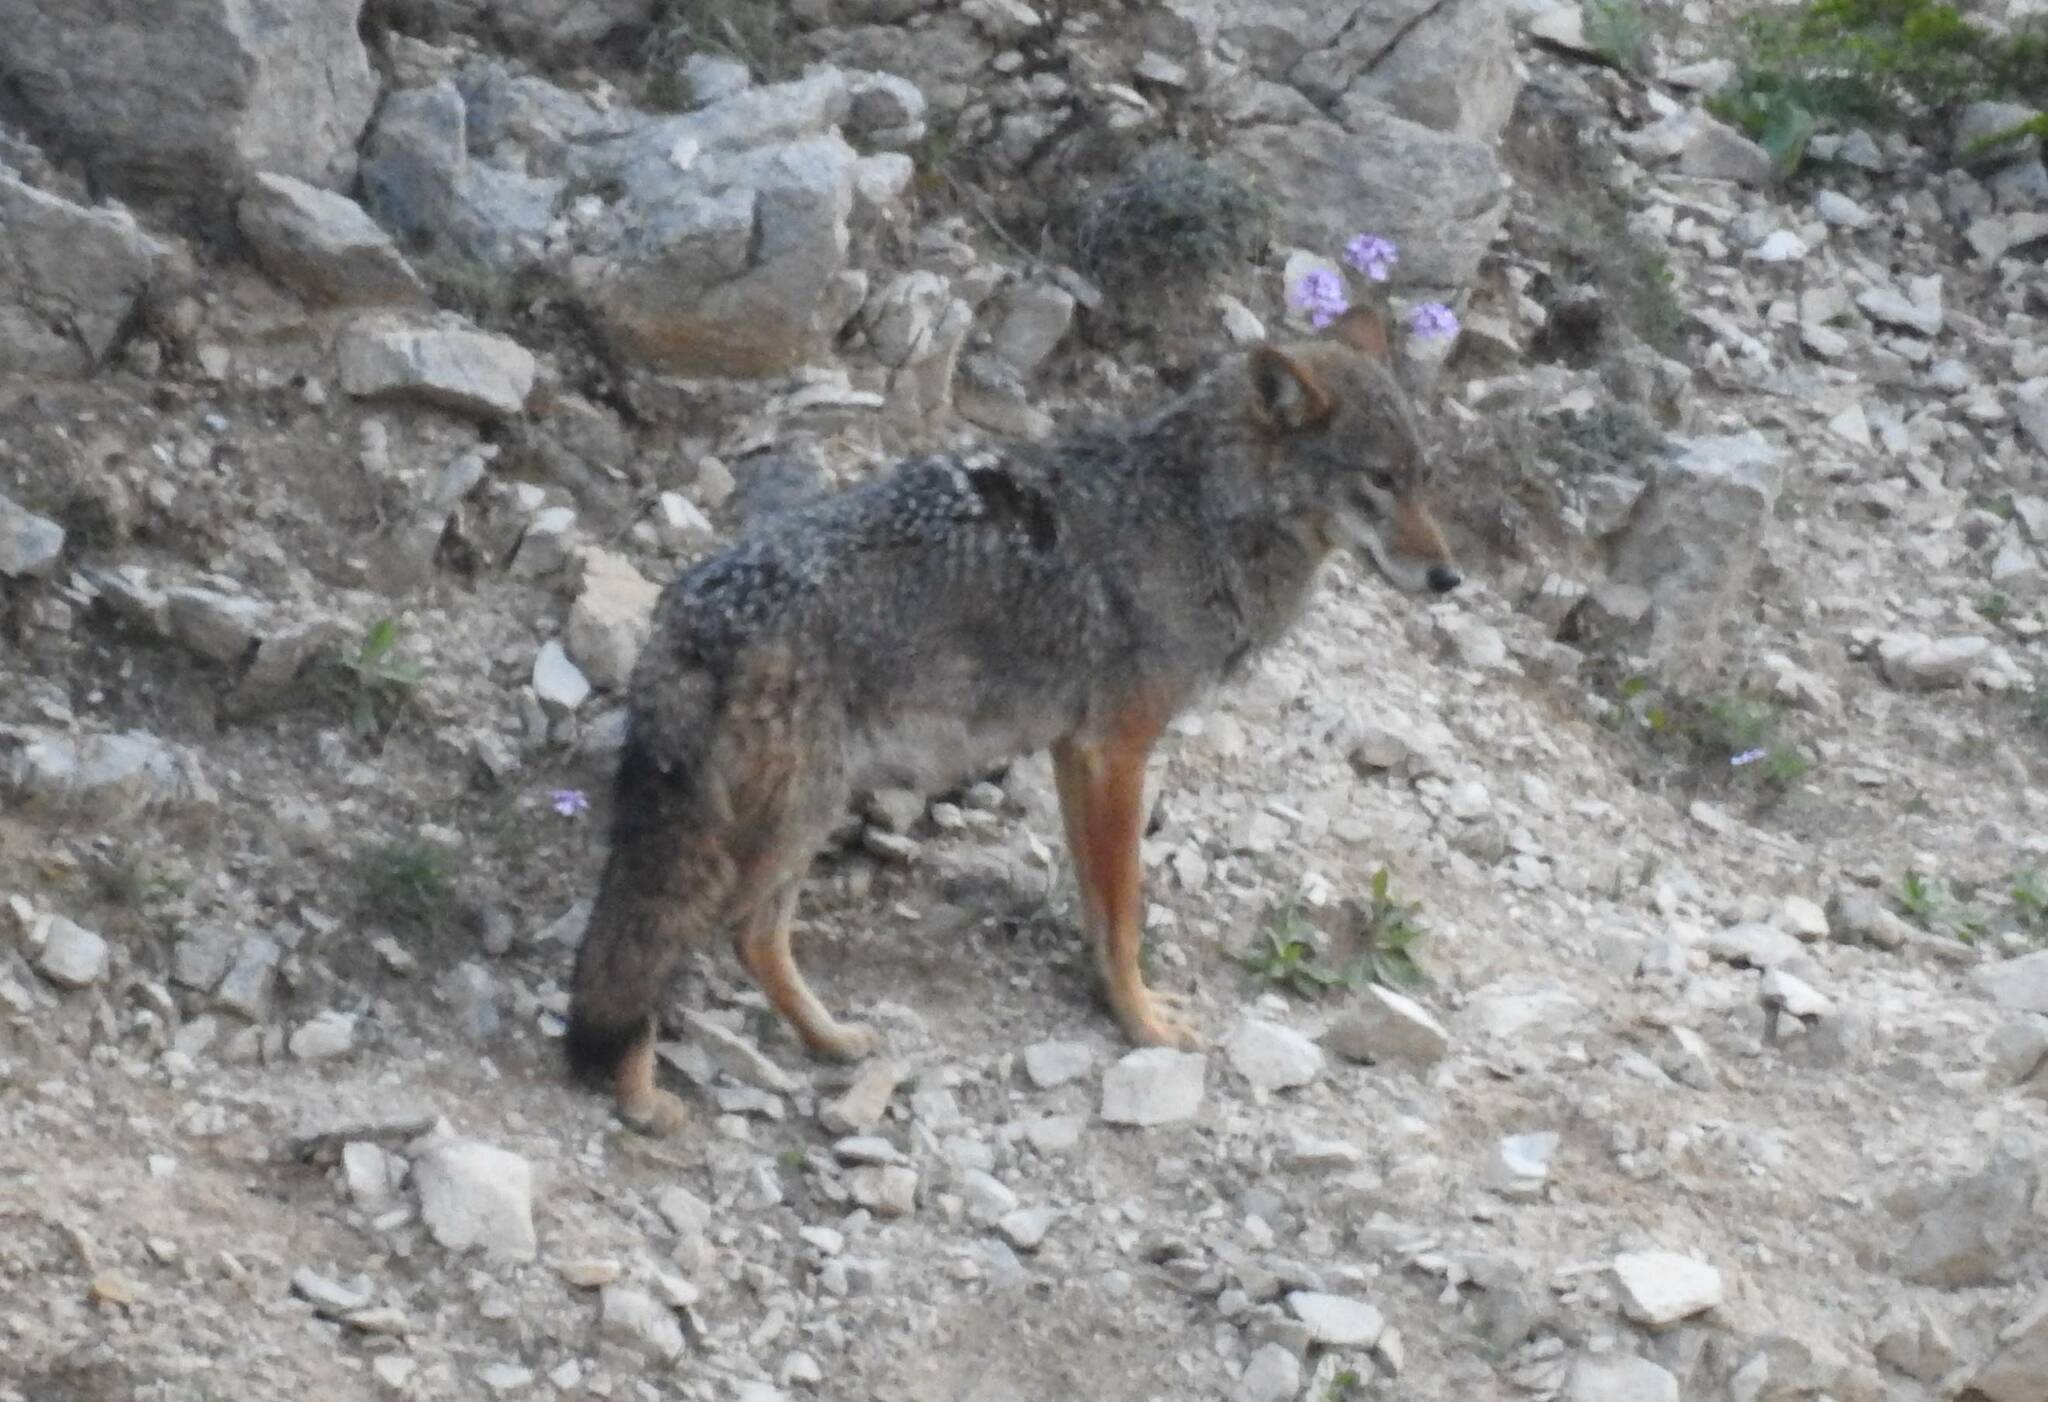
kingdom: Animalia
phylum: Chordata
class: Mammalia
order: Carnivora
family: Canidae
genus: Canis
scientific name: Canis lupaster
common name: African golden wolf
